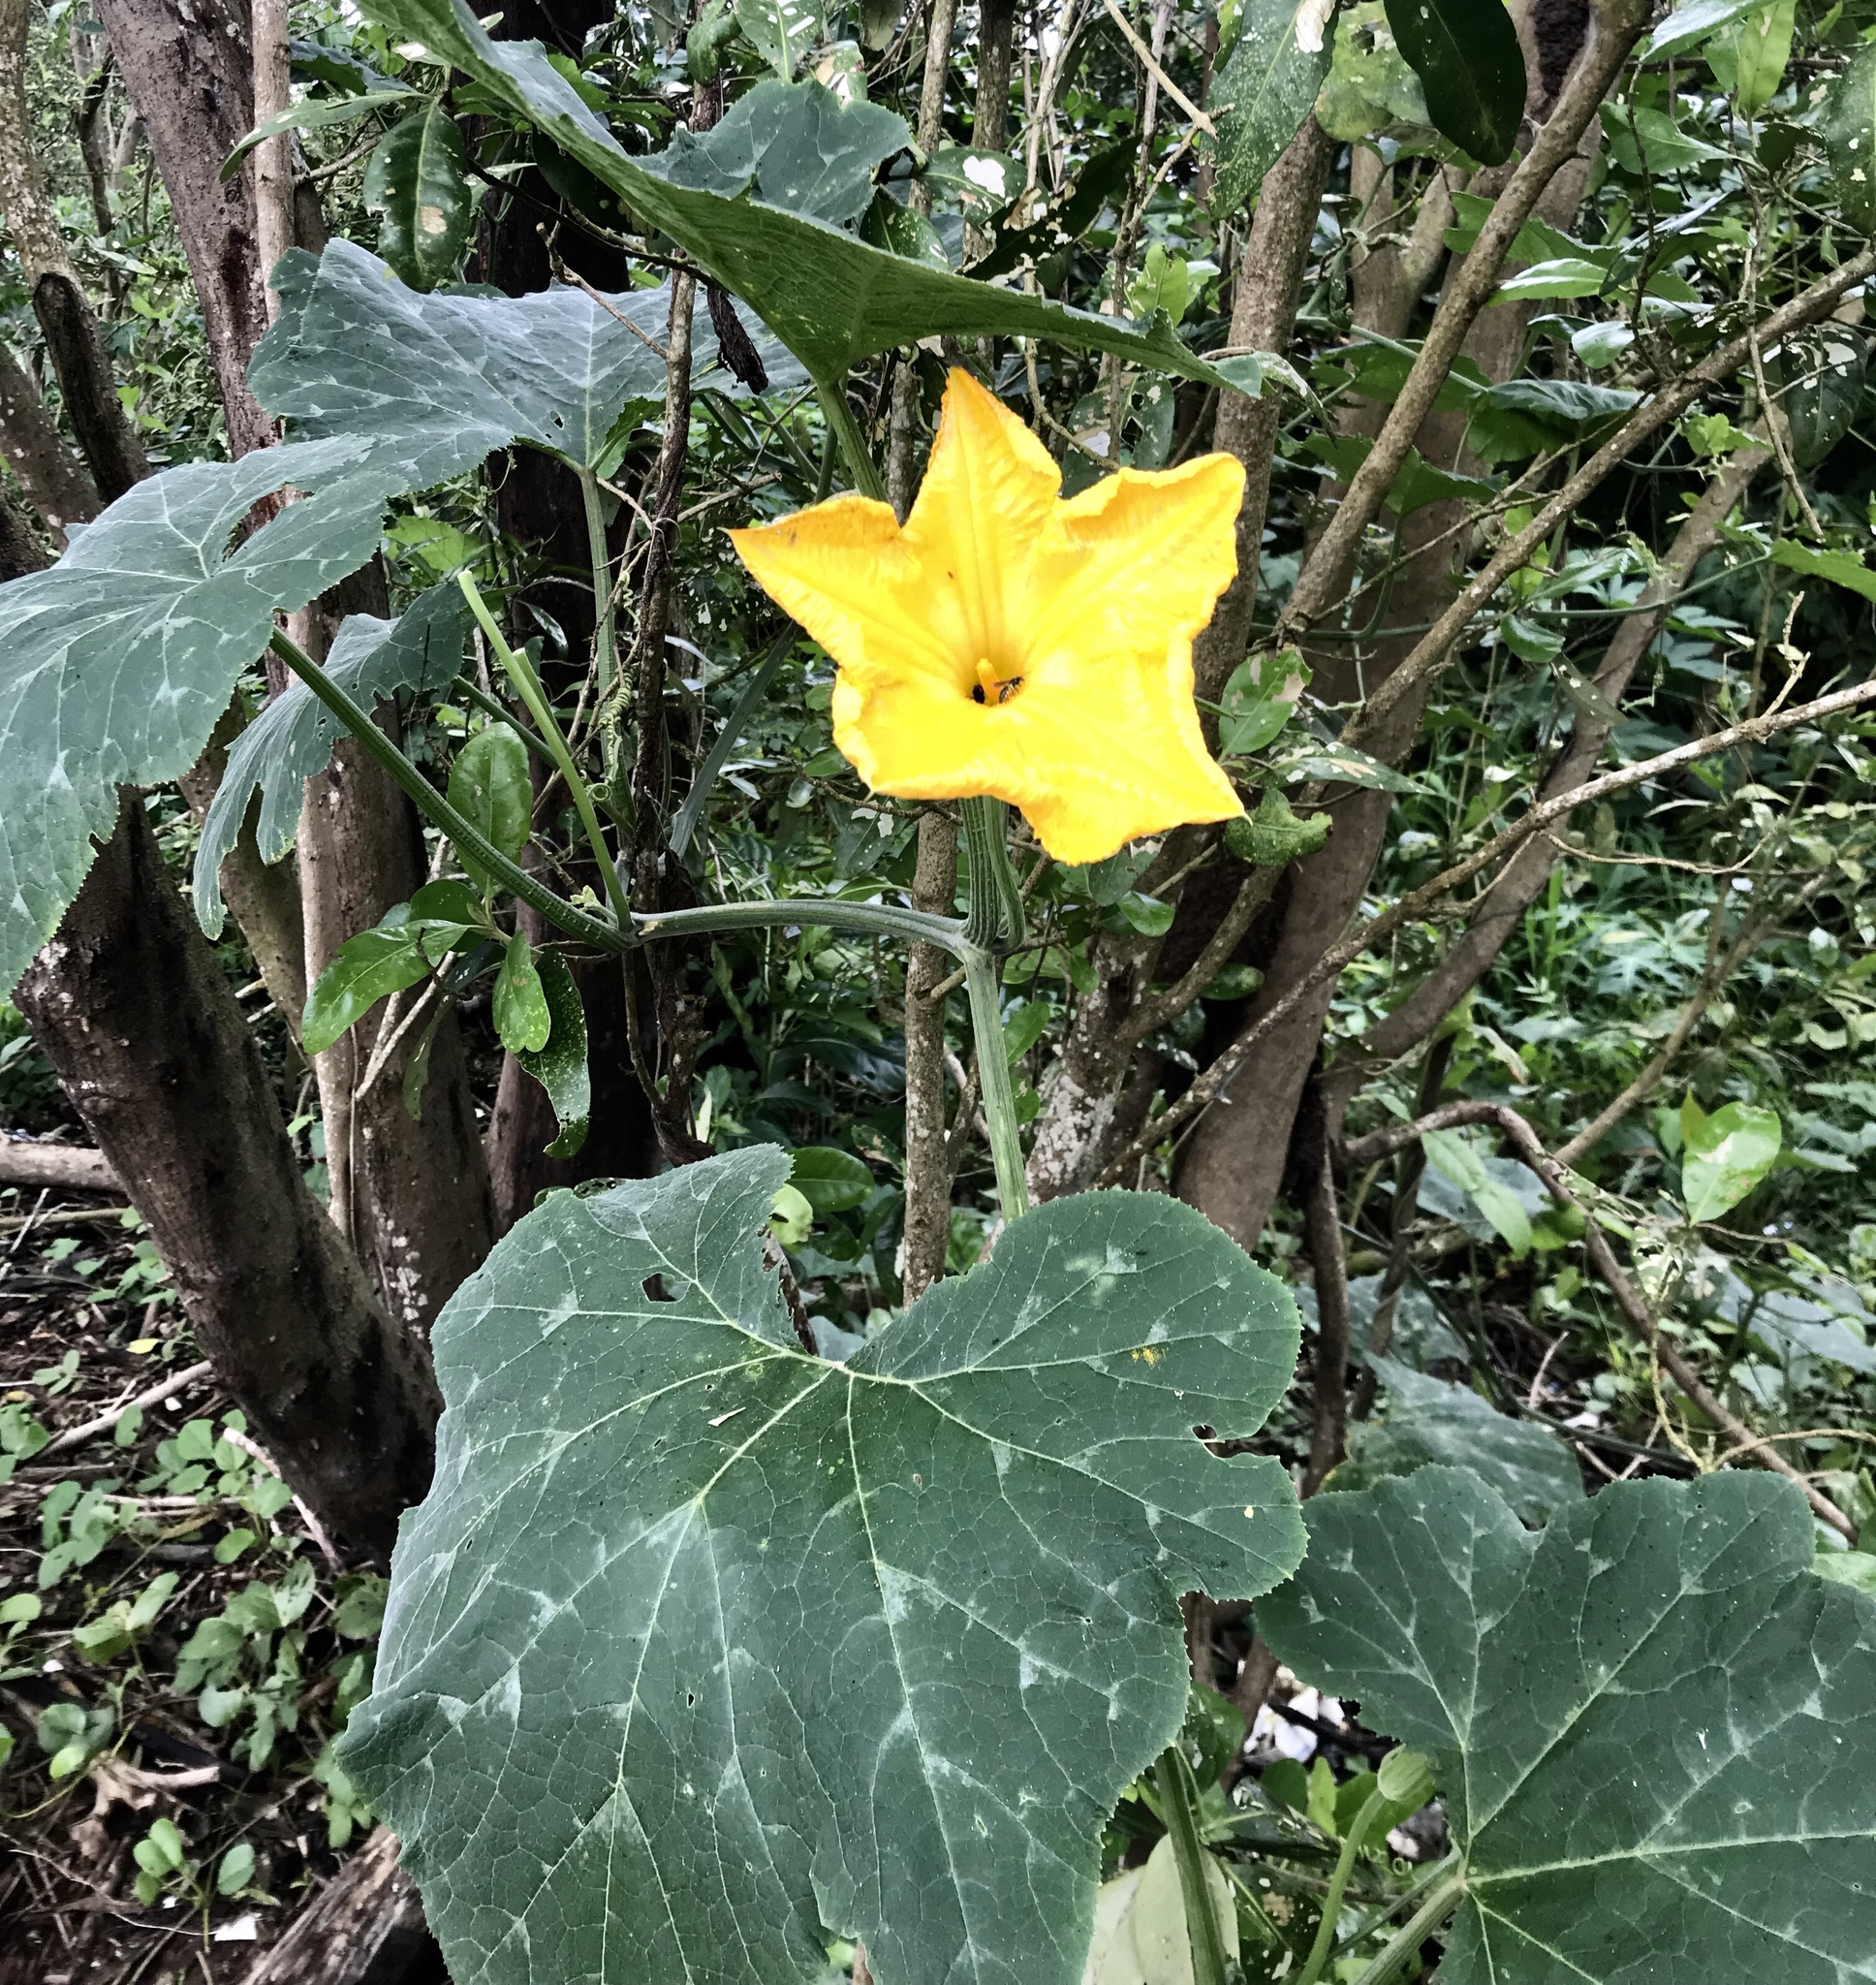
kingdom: Plantae
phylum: Tracheophyta
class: Magnoliopsida
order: Cucurbitales
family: Cucurbitaceae
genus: Cucurbita
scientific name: Cucurbita moschata
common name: Squash / pumpkin
